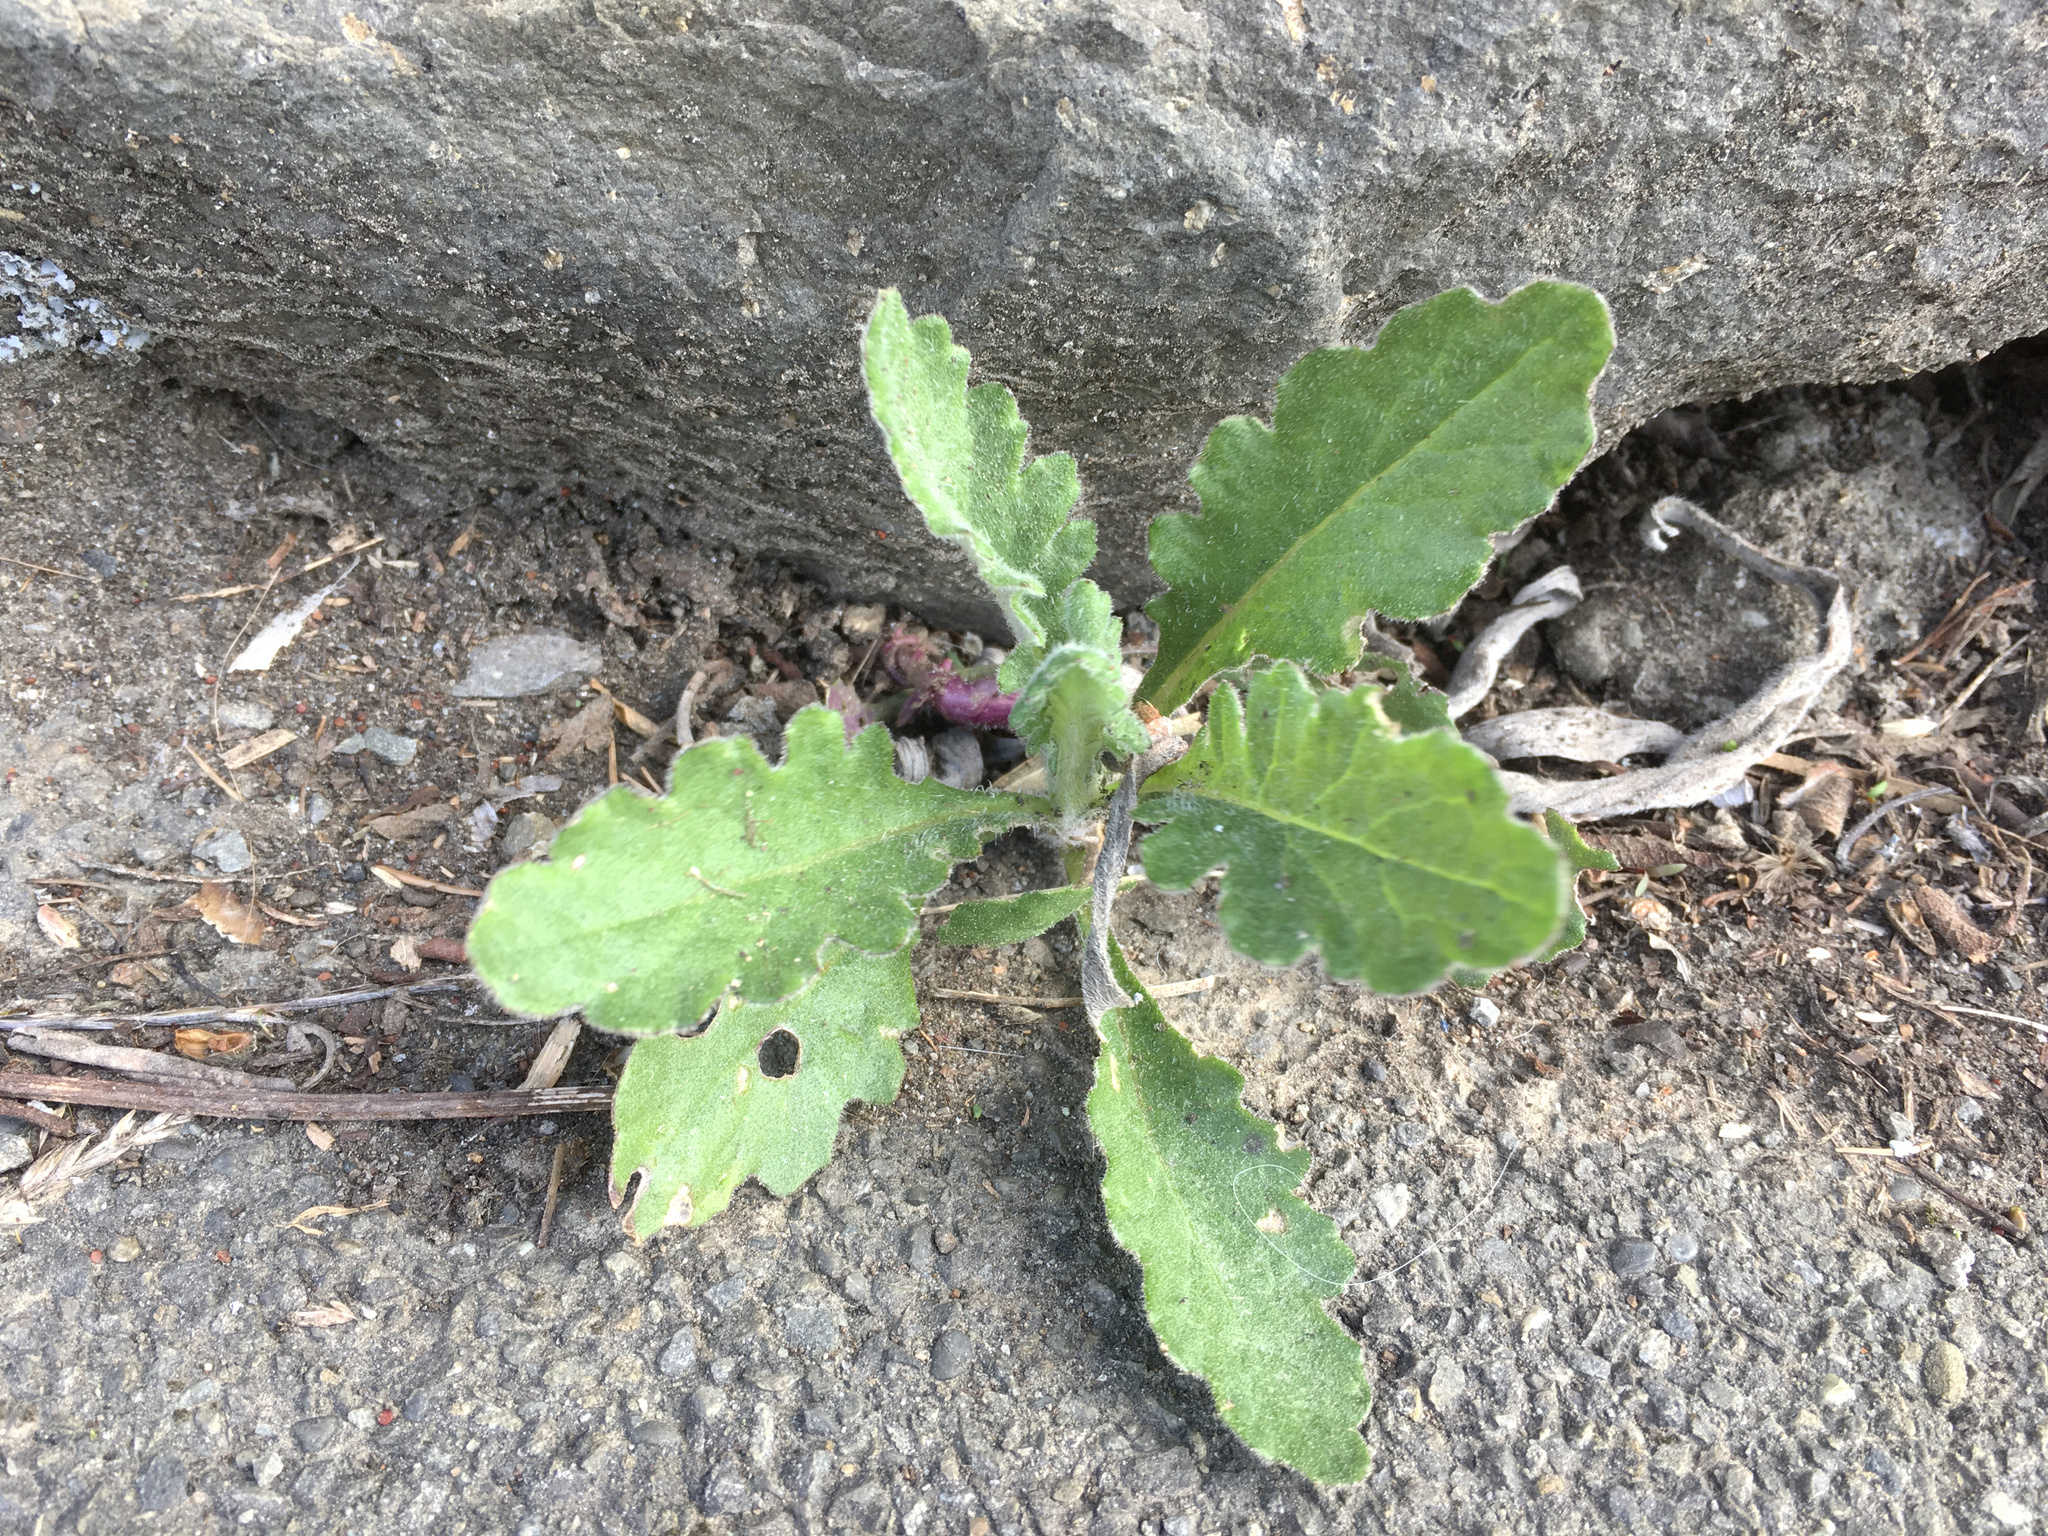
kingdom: Plantae
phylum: Tracheophyta
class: Magnoliopsida
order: Asterales
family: Asteraceae
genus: Senecio
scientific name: Senecio glomeratus
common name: Cutleaf burnweed
